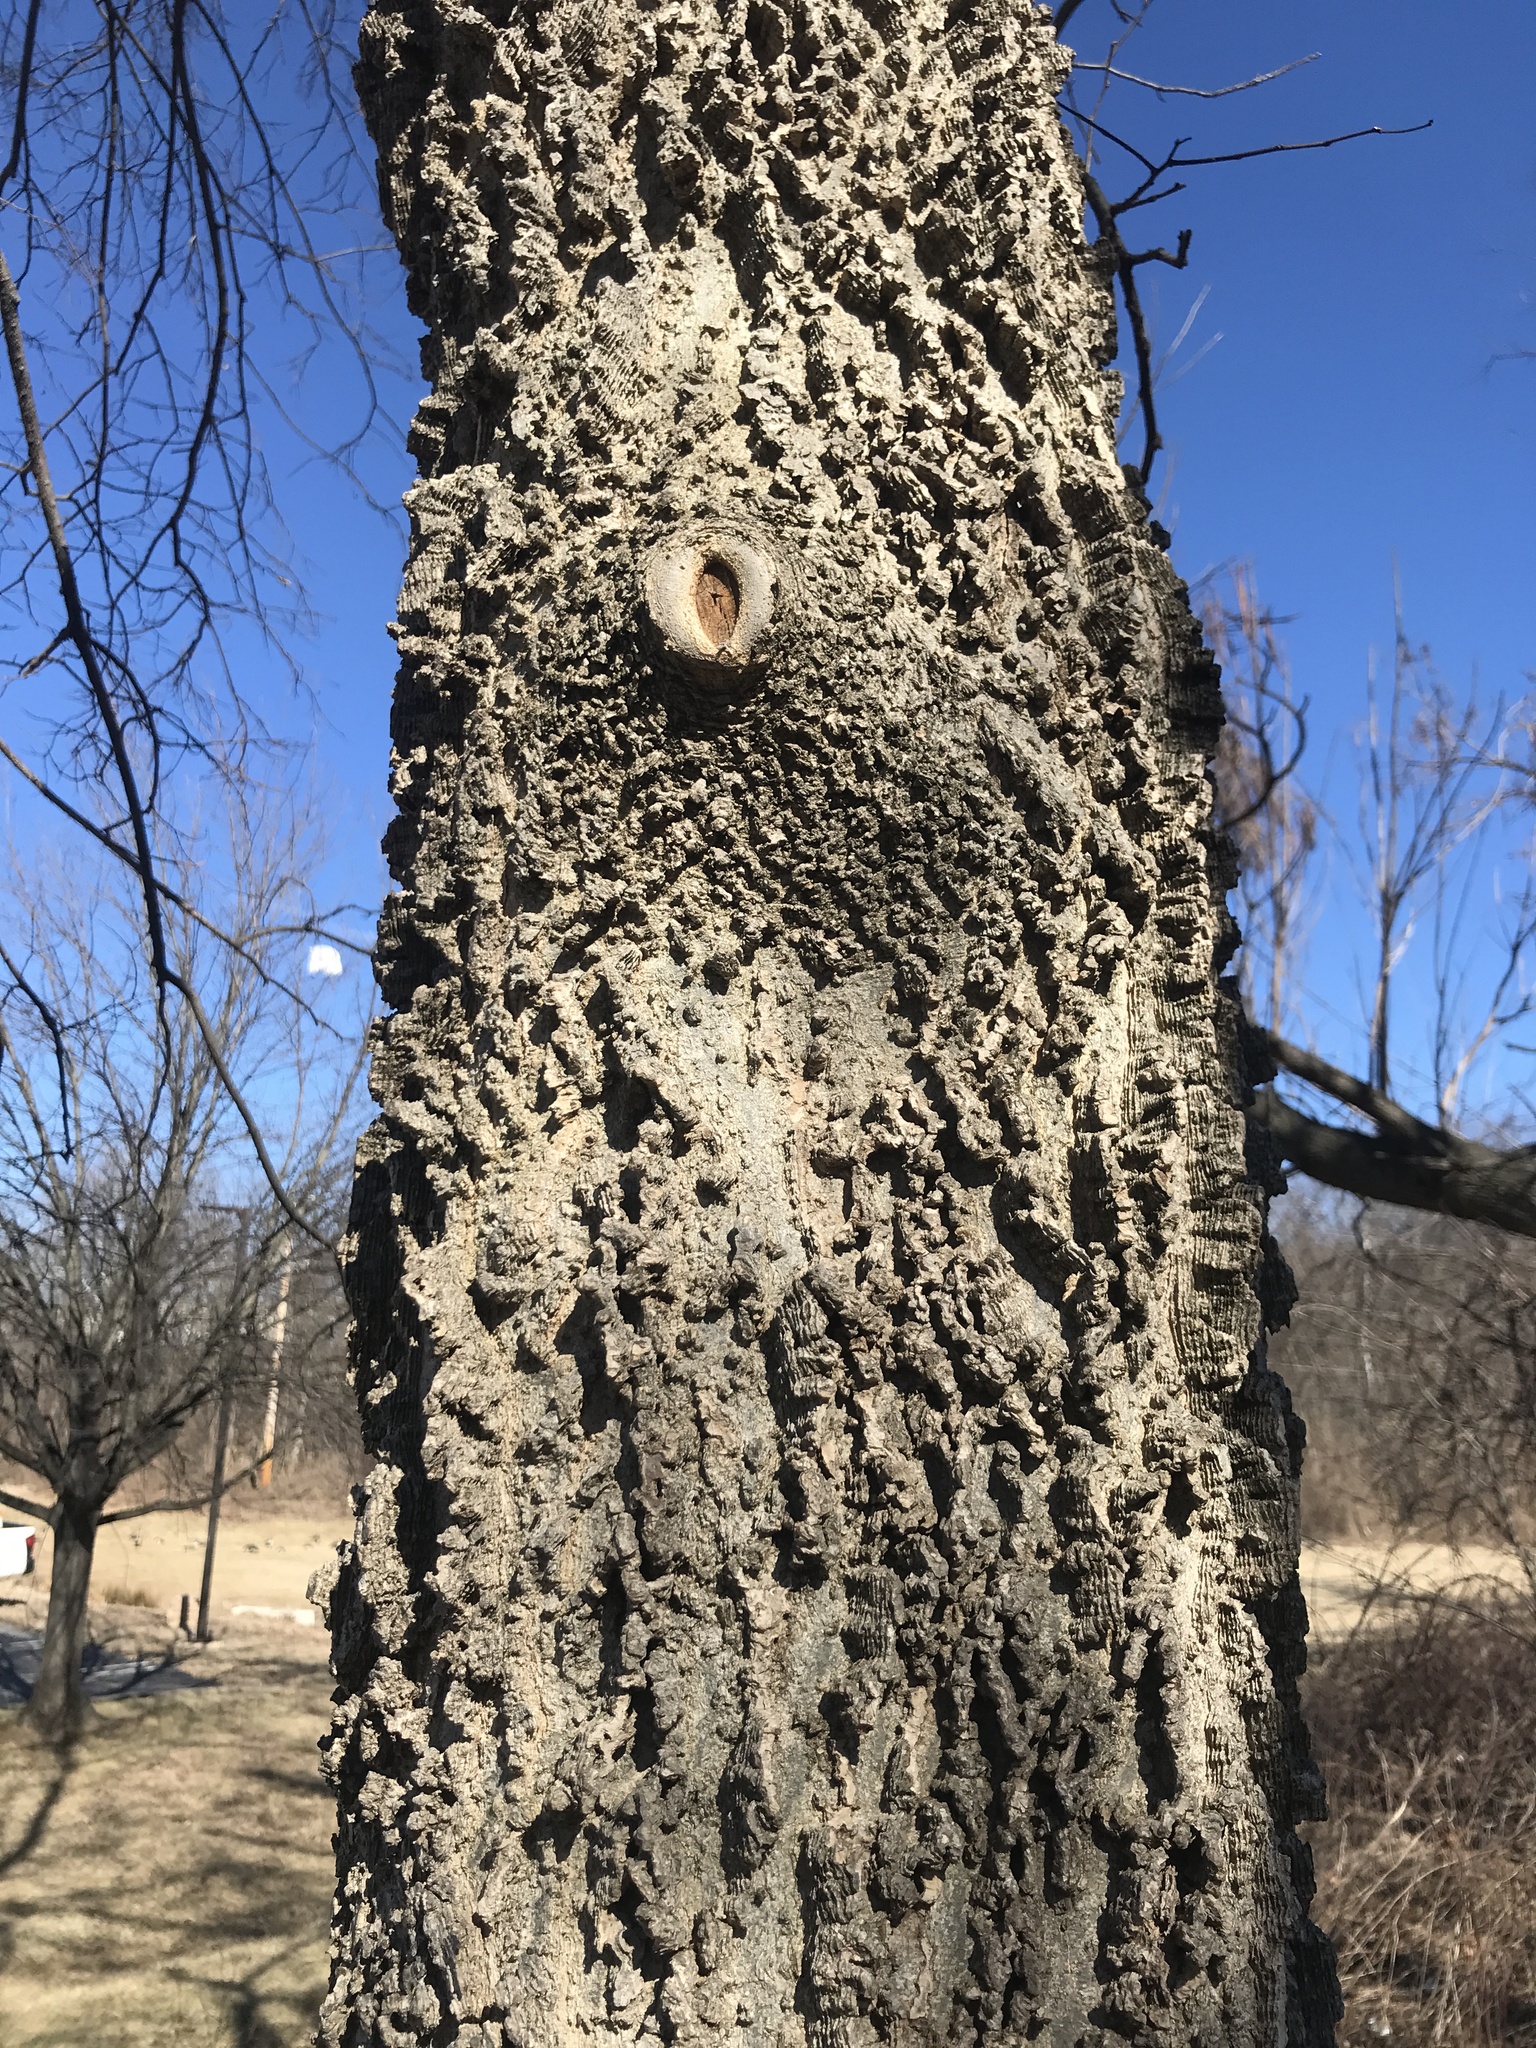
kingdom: Plantae
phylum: Tracheophyta
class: Magnoliopsida
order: Rosales
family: Cannabaceae
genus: Celtis
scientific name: Celtis occidentalis
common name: Common hackberry
